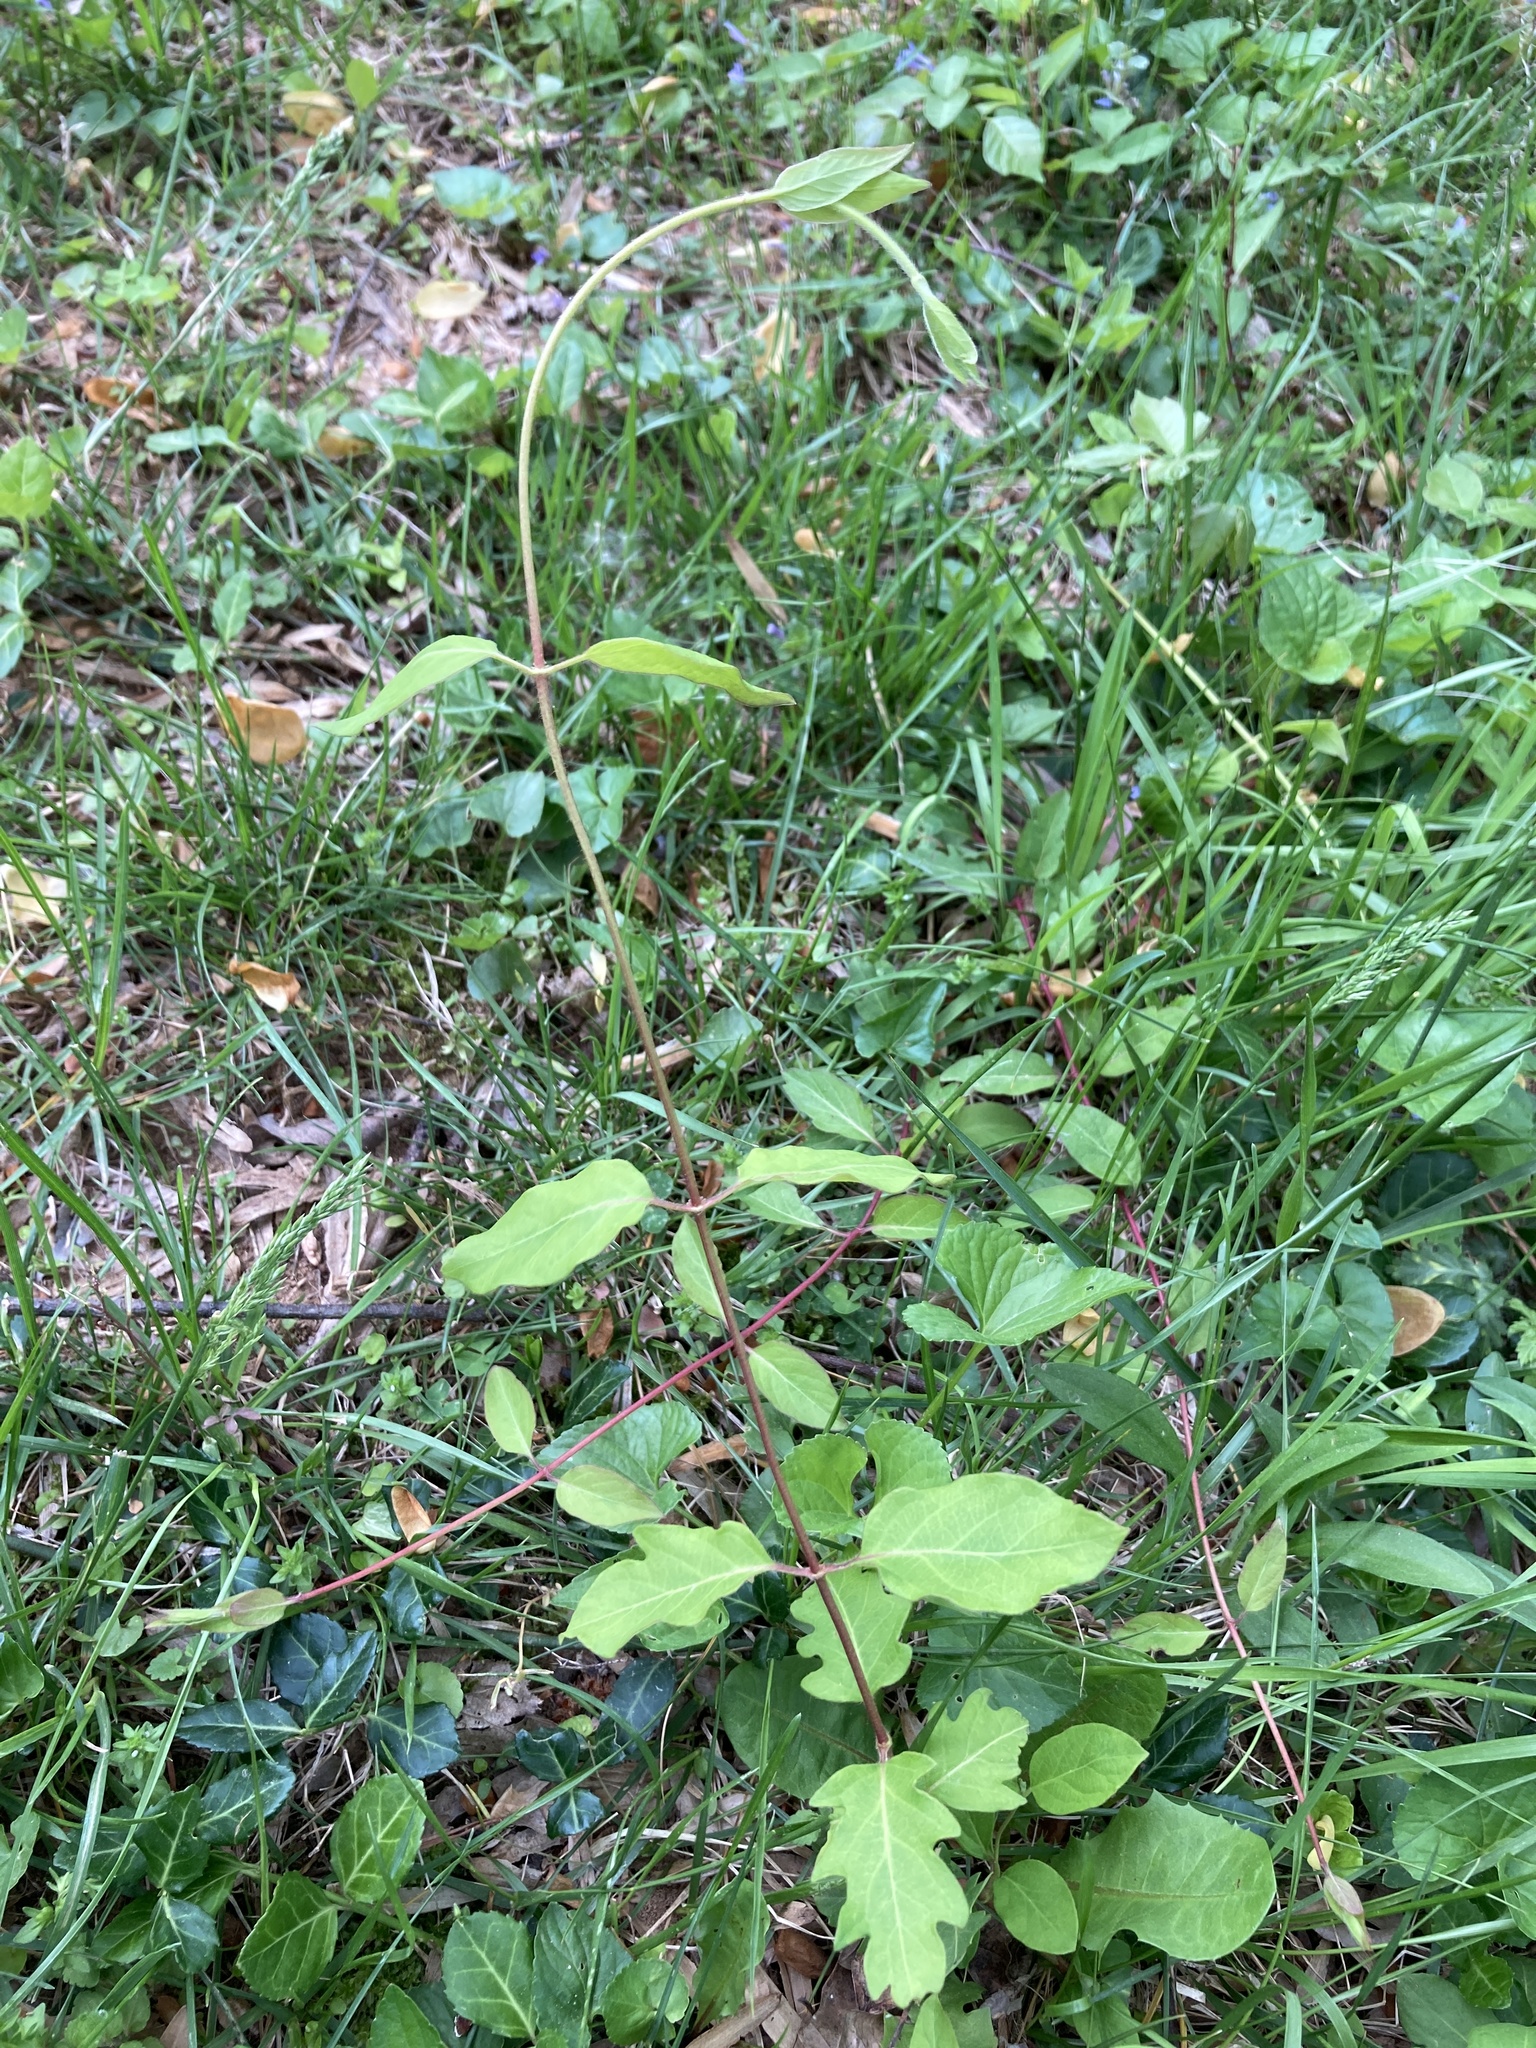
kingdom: Plantae
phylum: Tracheophyta
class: Magnoliopsida
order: Dipsacales
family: Caprifoliaceae
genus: Lonicera
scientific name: Lonicera japonica
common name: Japanese honeysuckle
